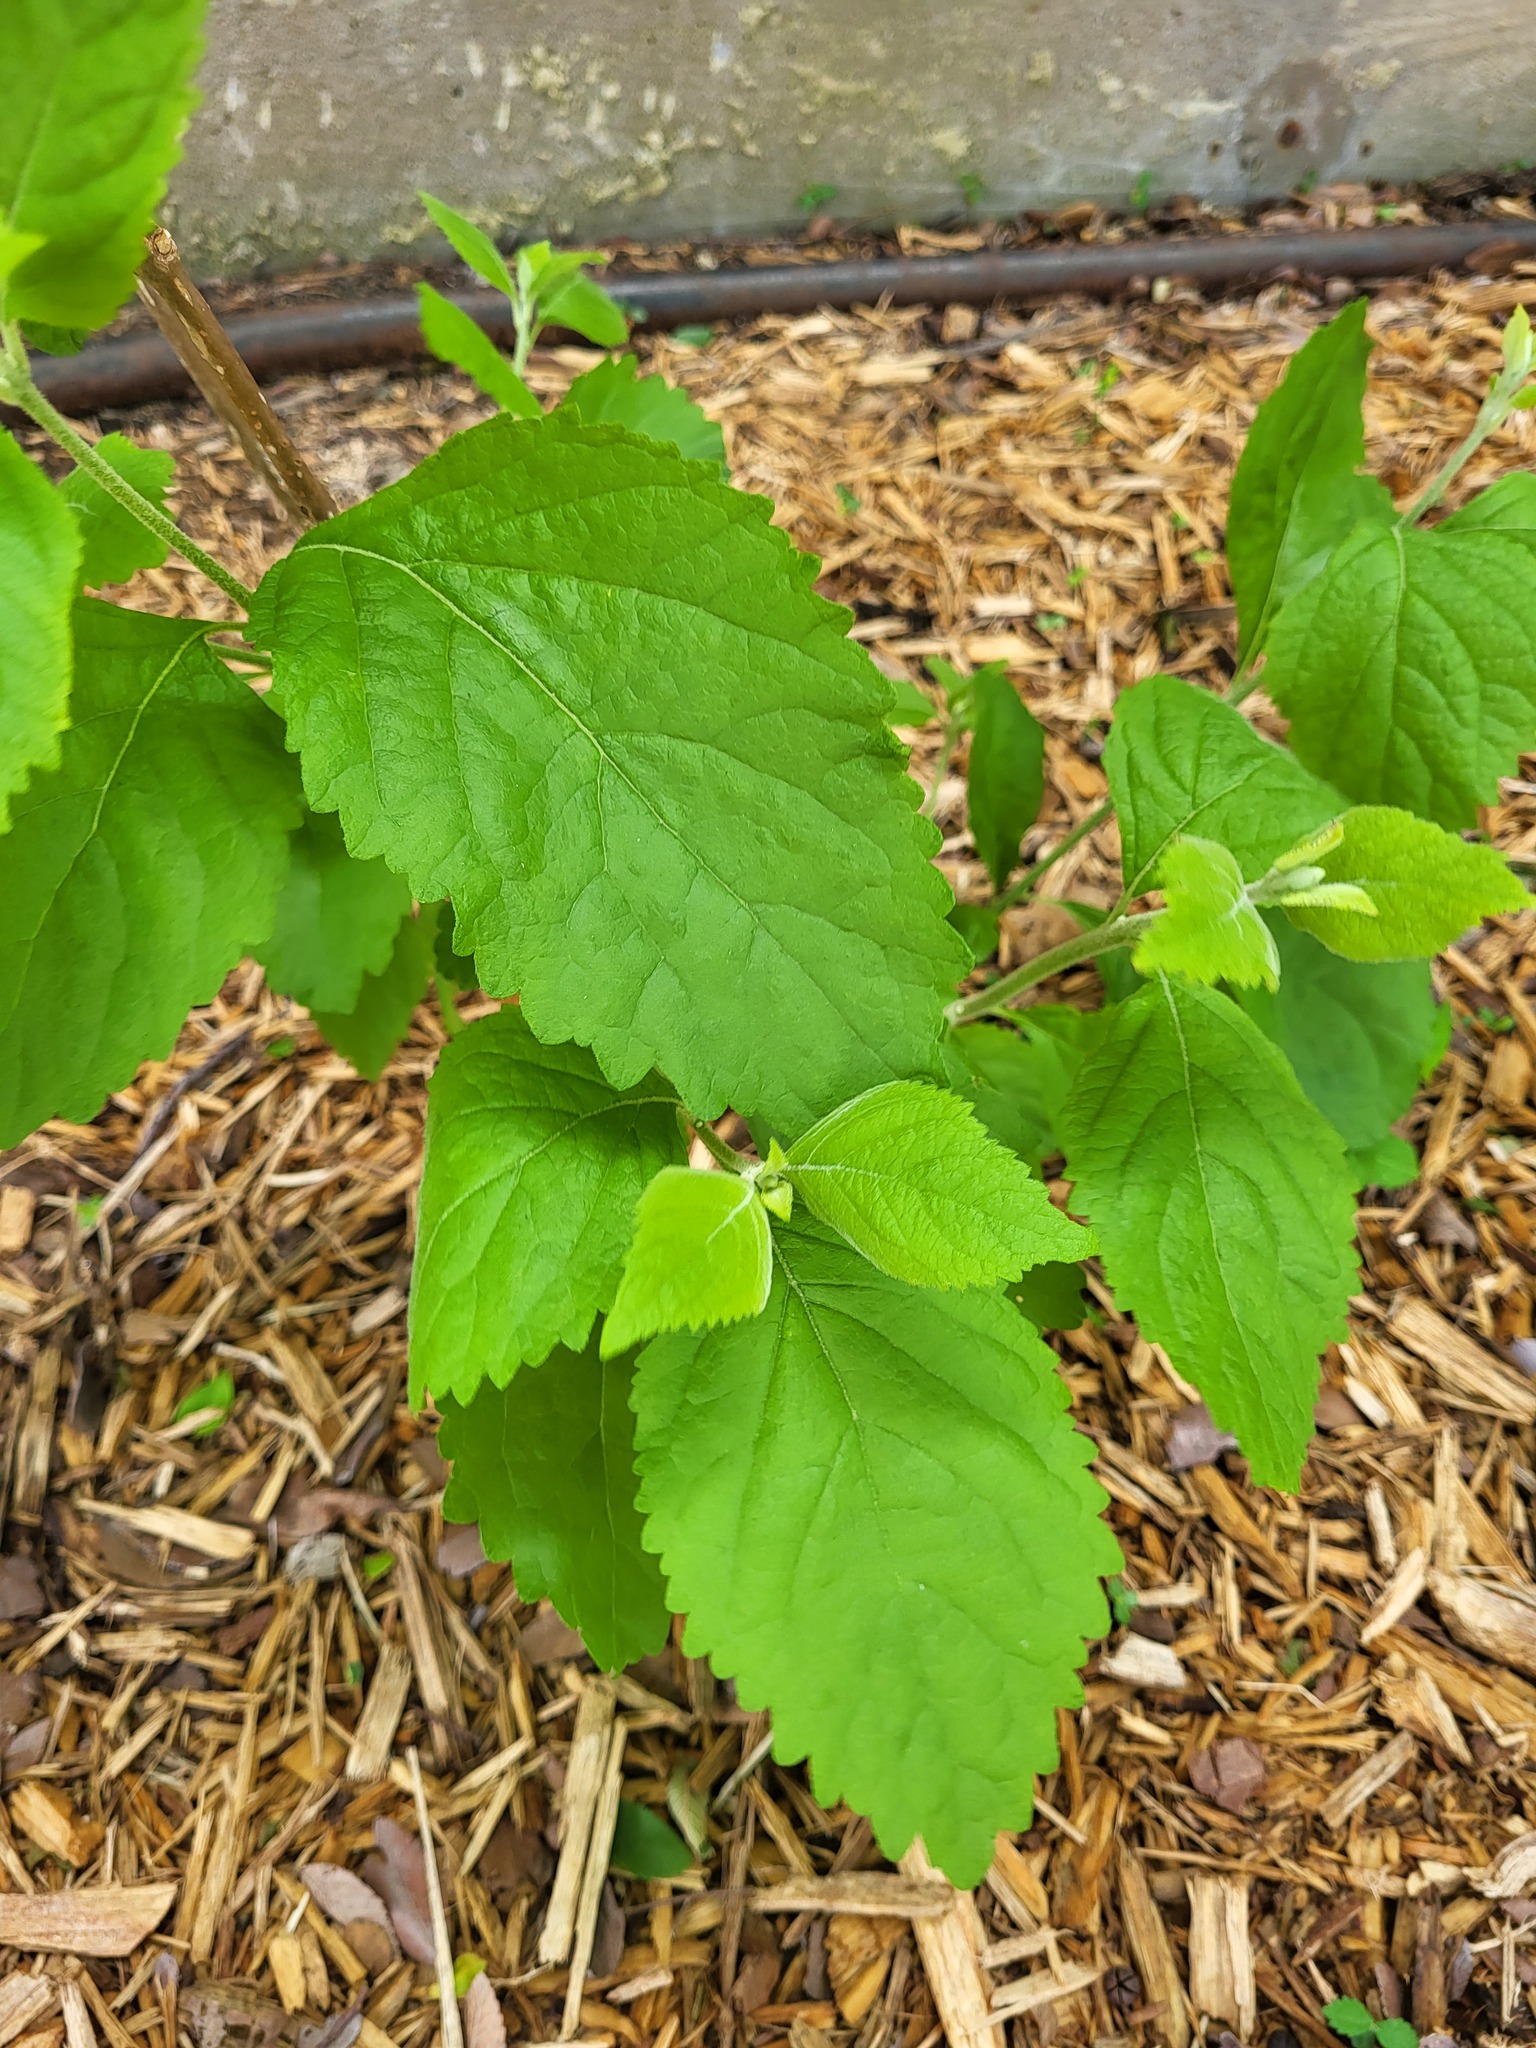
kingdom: Plantae
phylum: Tracheophyta
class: Magnoliopsida
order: Lamiales
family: Lamiaceae
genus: Callicarpa
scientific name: Callicarpa americana
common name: American beautyberry
